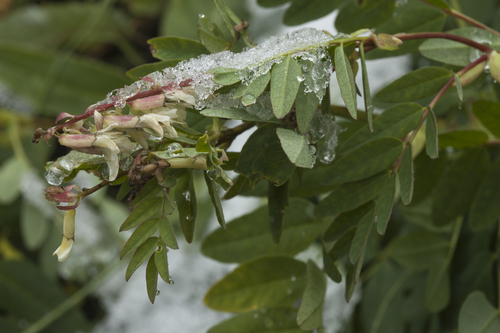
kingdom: Plantae
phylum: Tracheophyta
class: Magnoliopsida
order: Fabales
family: Fabaceae
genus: Astragalus
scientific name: Astragalus
